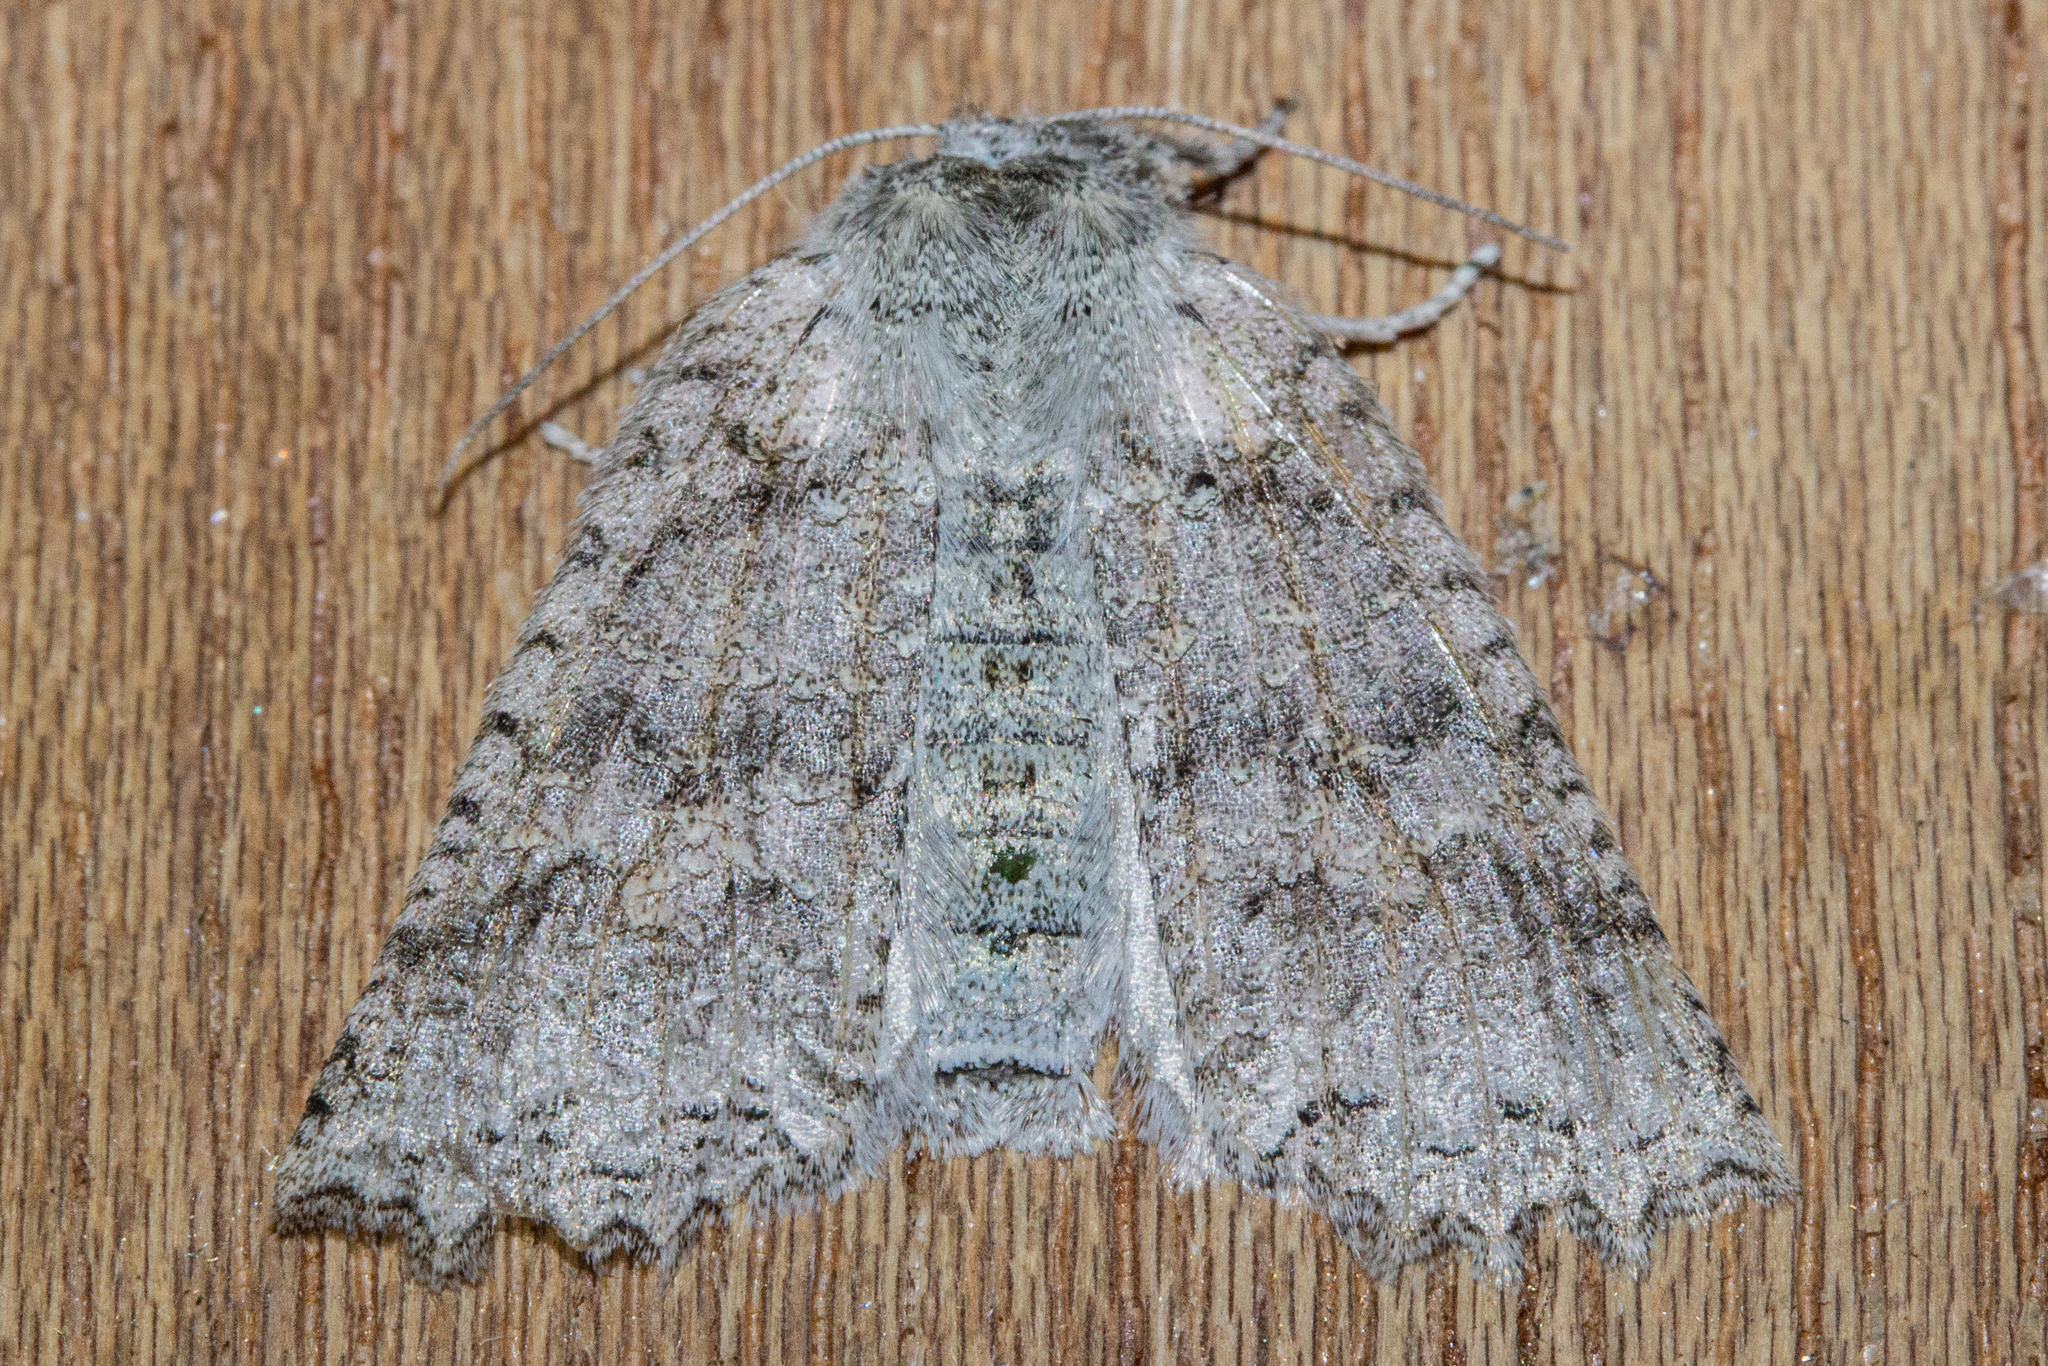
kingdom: Animalia
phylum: Arthropoda
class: Insecta
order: Lepidoptera
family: Geometridae
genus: Declana
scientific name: Declana niveata
